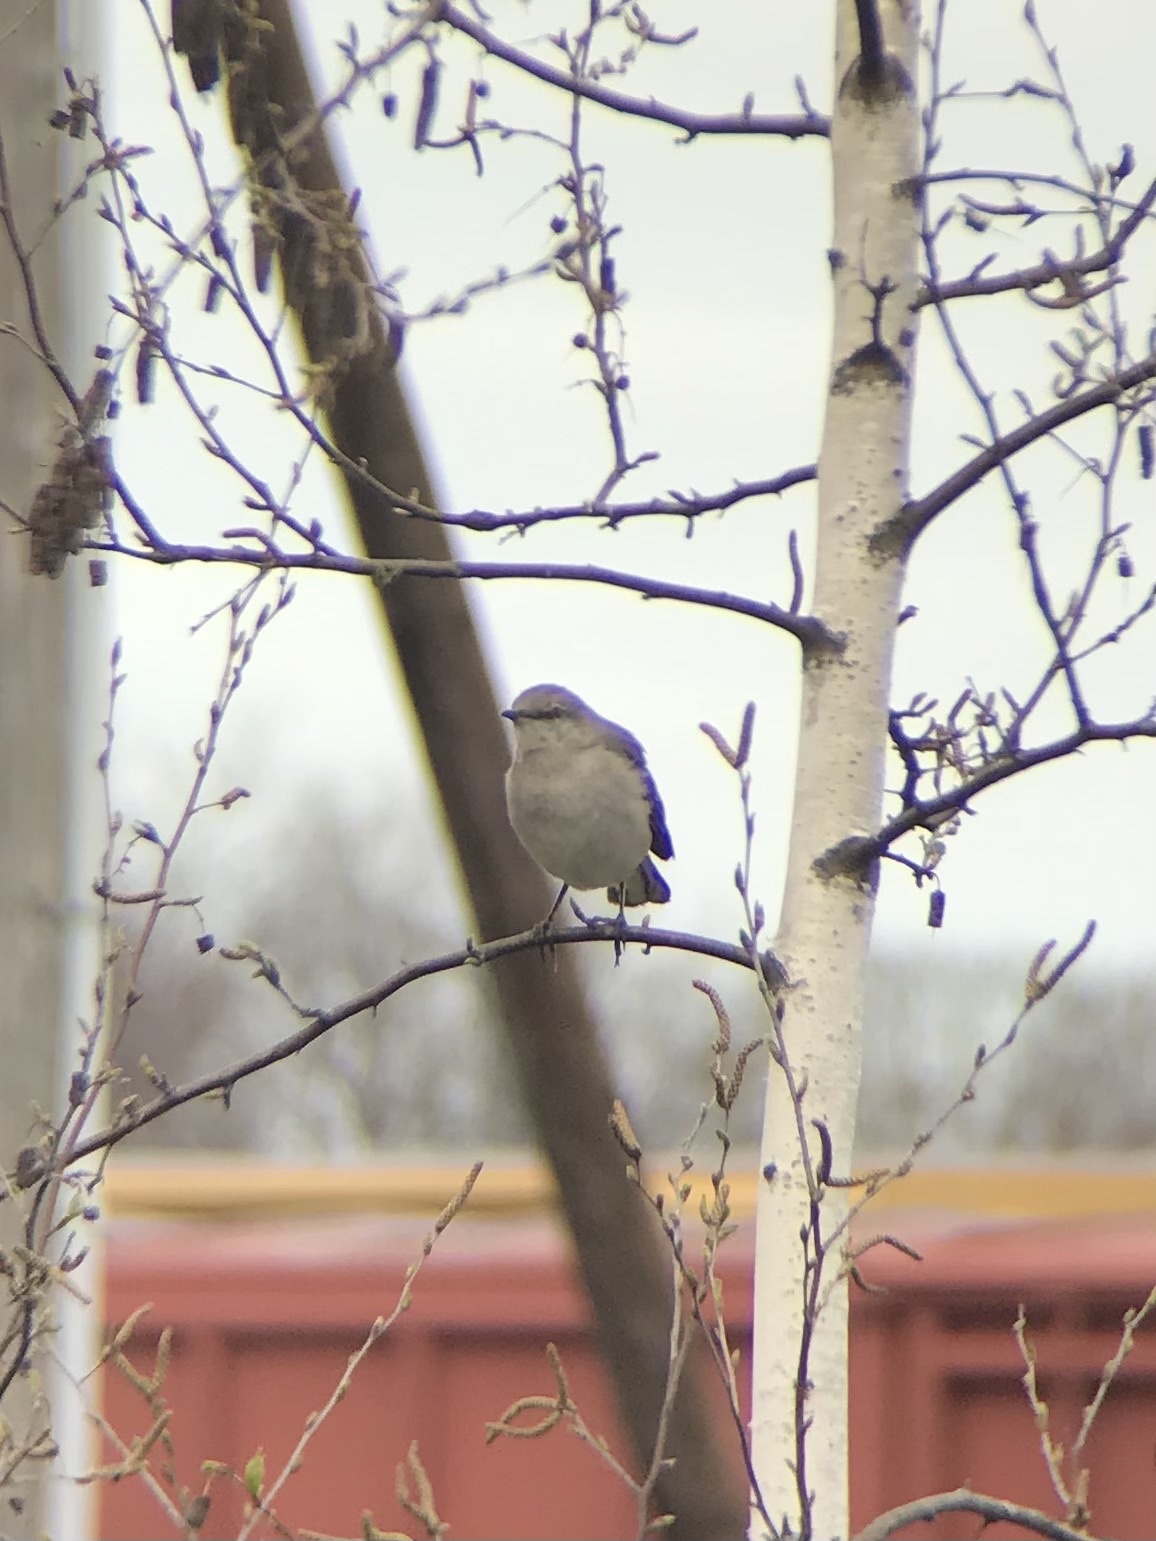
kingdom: Animalia
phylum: Chordata
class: Aves
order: Passeriformes
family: Mimidae
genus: Mimus
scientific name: Mimus polyglottos
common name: Northern mockingbird
